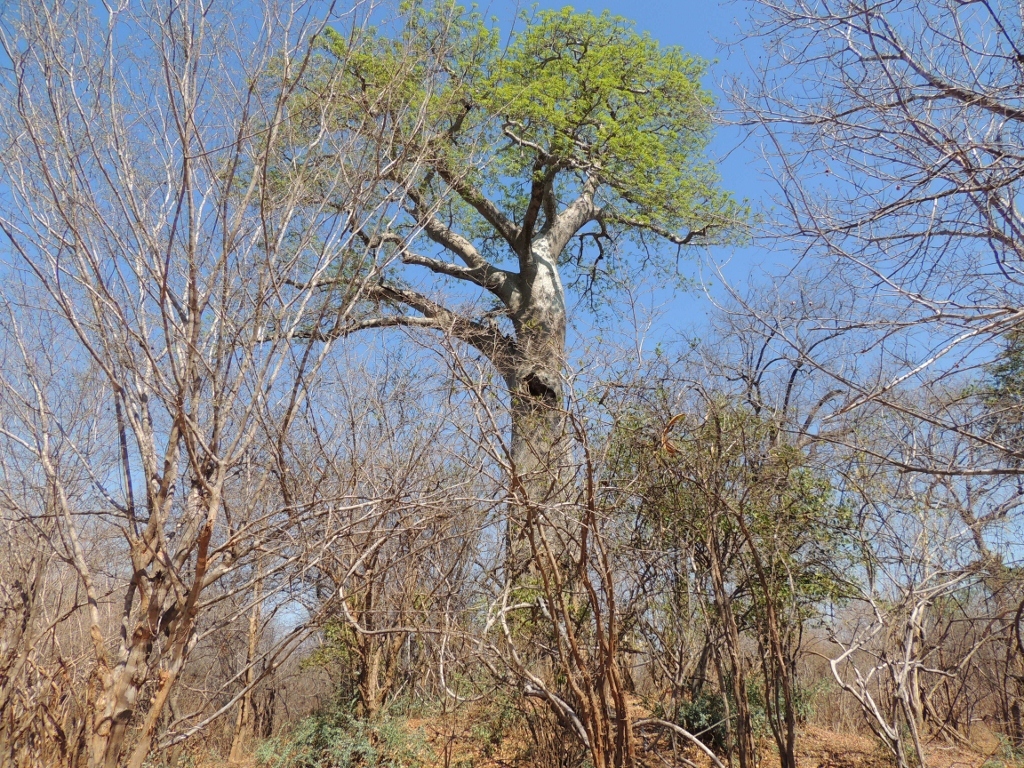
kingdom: Plantae
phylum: Tracheophyta
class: Magnoliopsida
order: Malvales
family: Malvaceae
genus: Adansonia
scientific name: Adansonia digitata
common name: Dead-rat-tree
